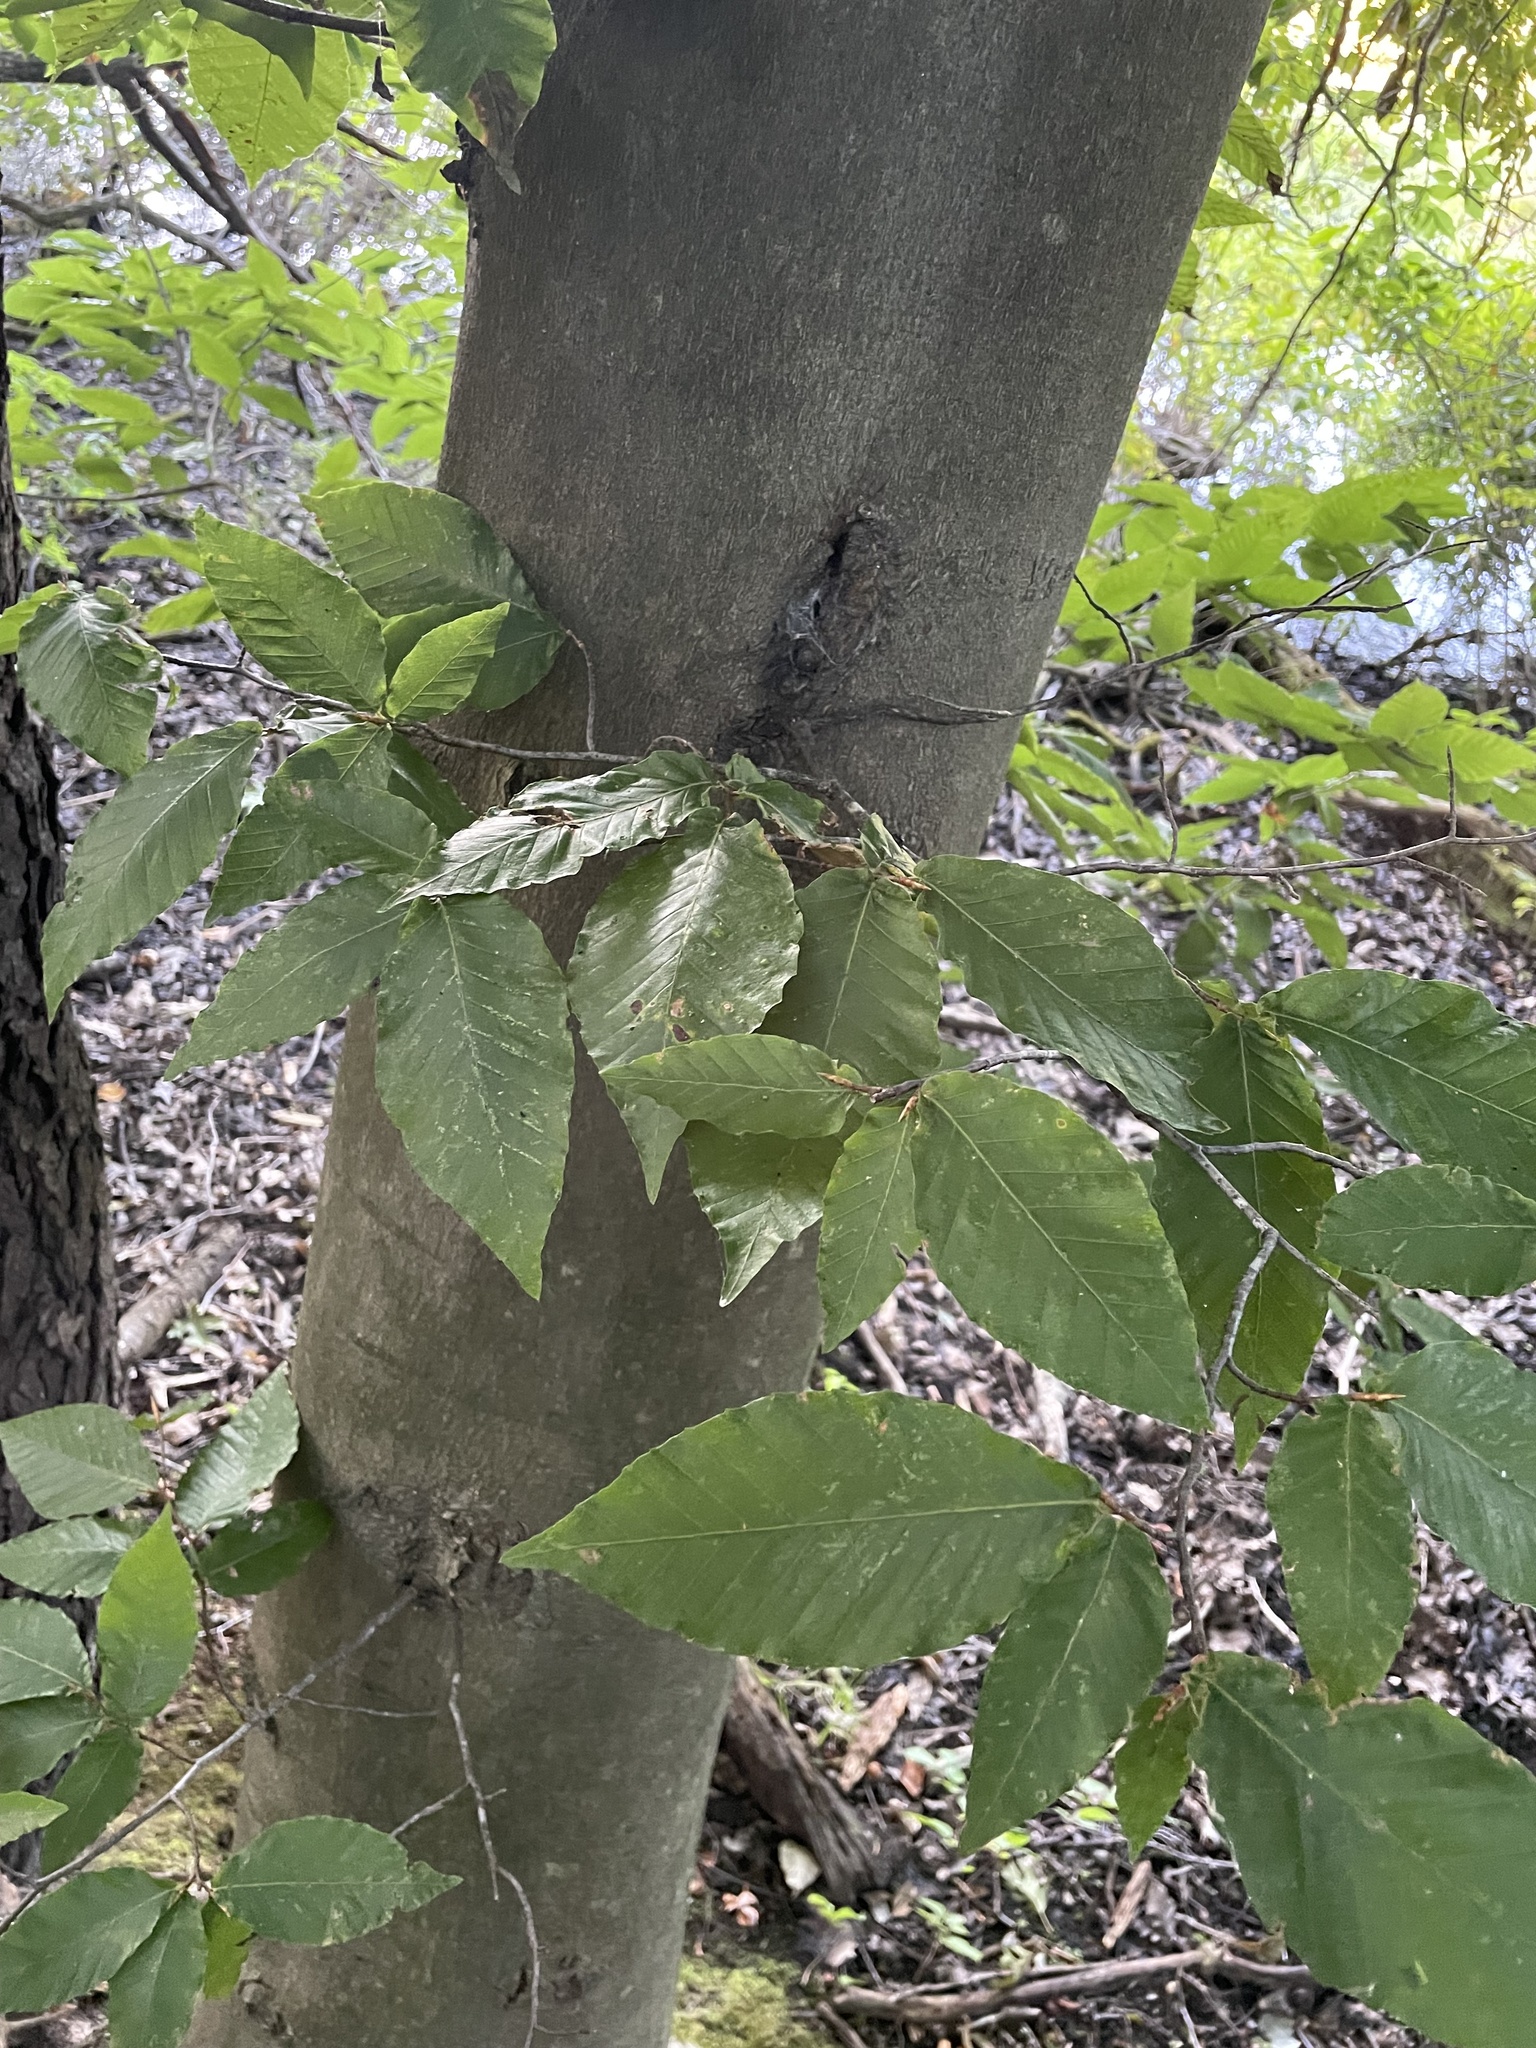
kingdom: Plantae
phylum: Tracheophyta
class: Magnoliopsida
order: Fagales
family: Fagaceae
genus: Fagus
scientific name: Fagus grandifolia
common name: American beech
